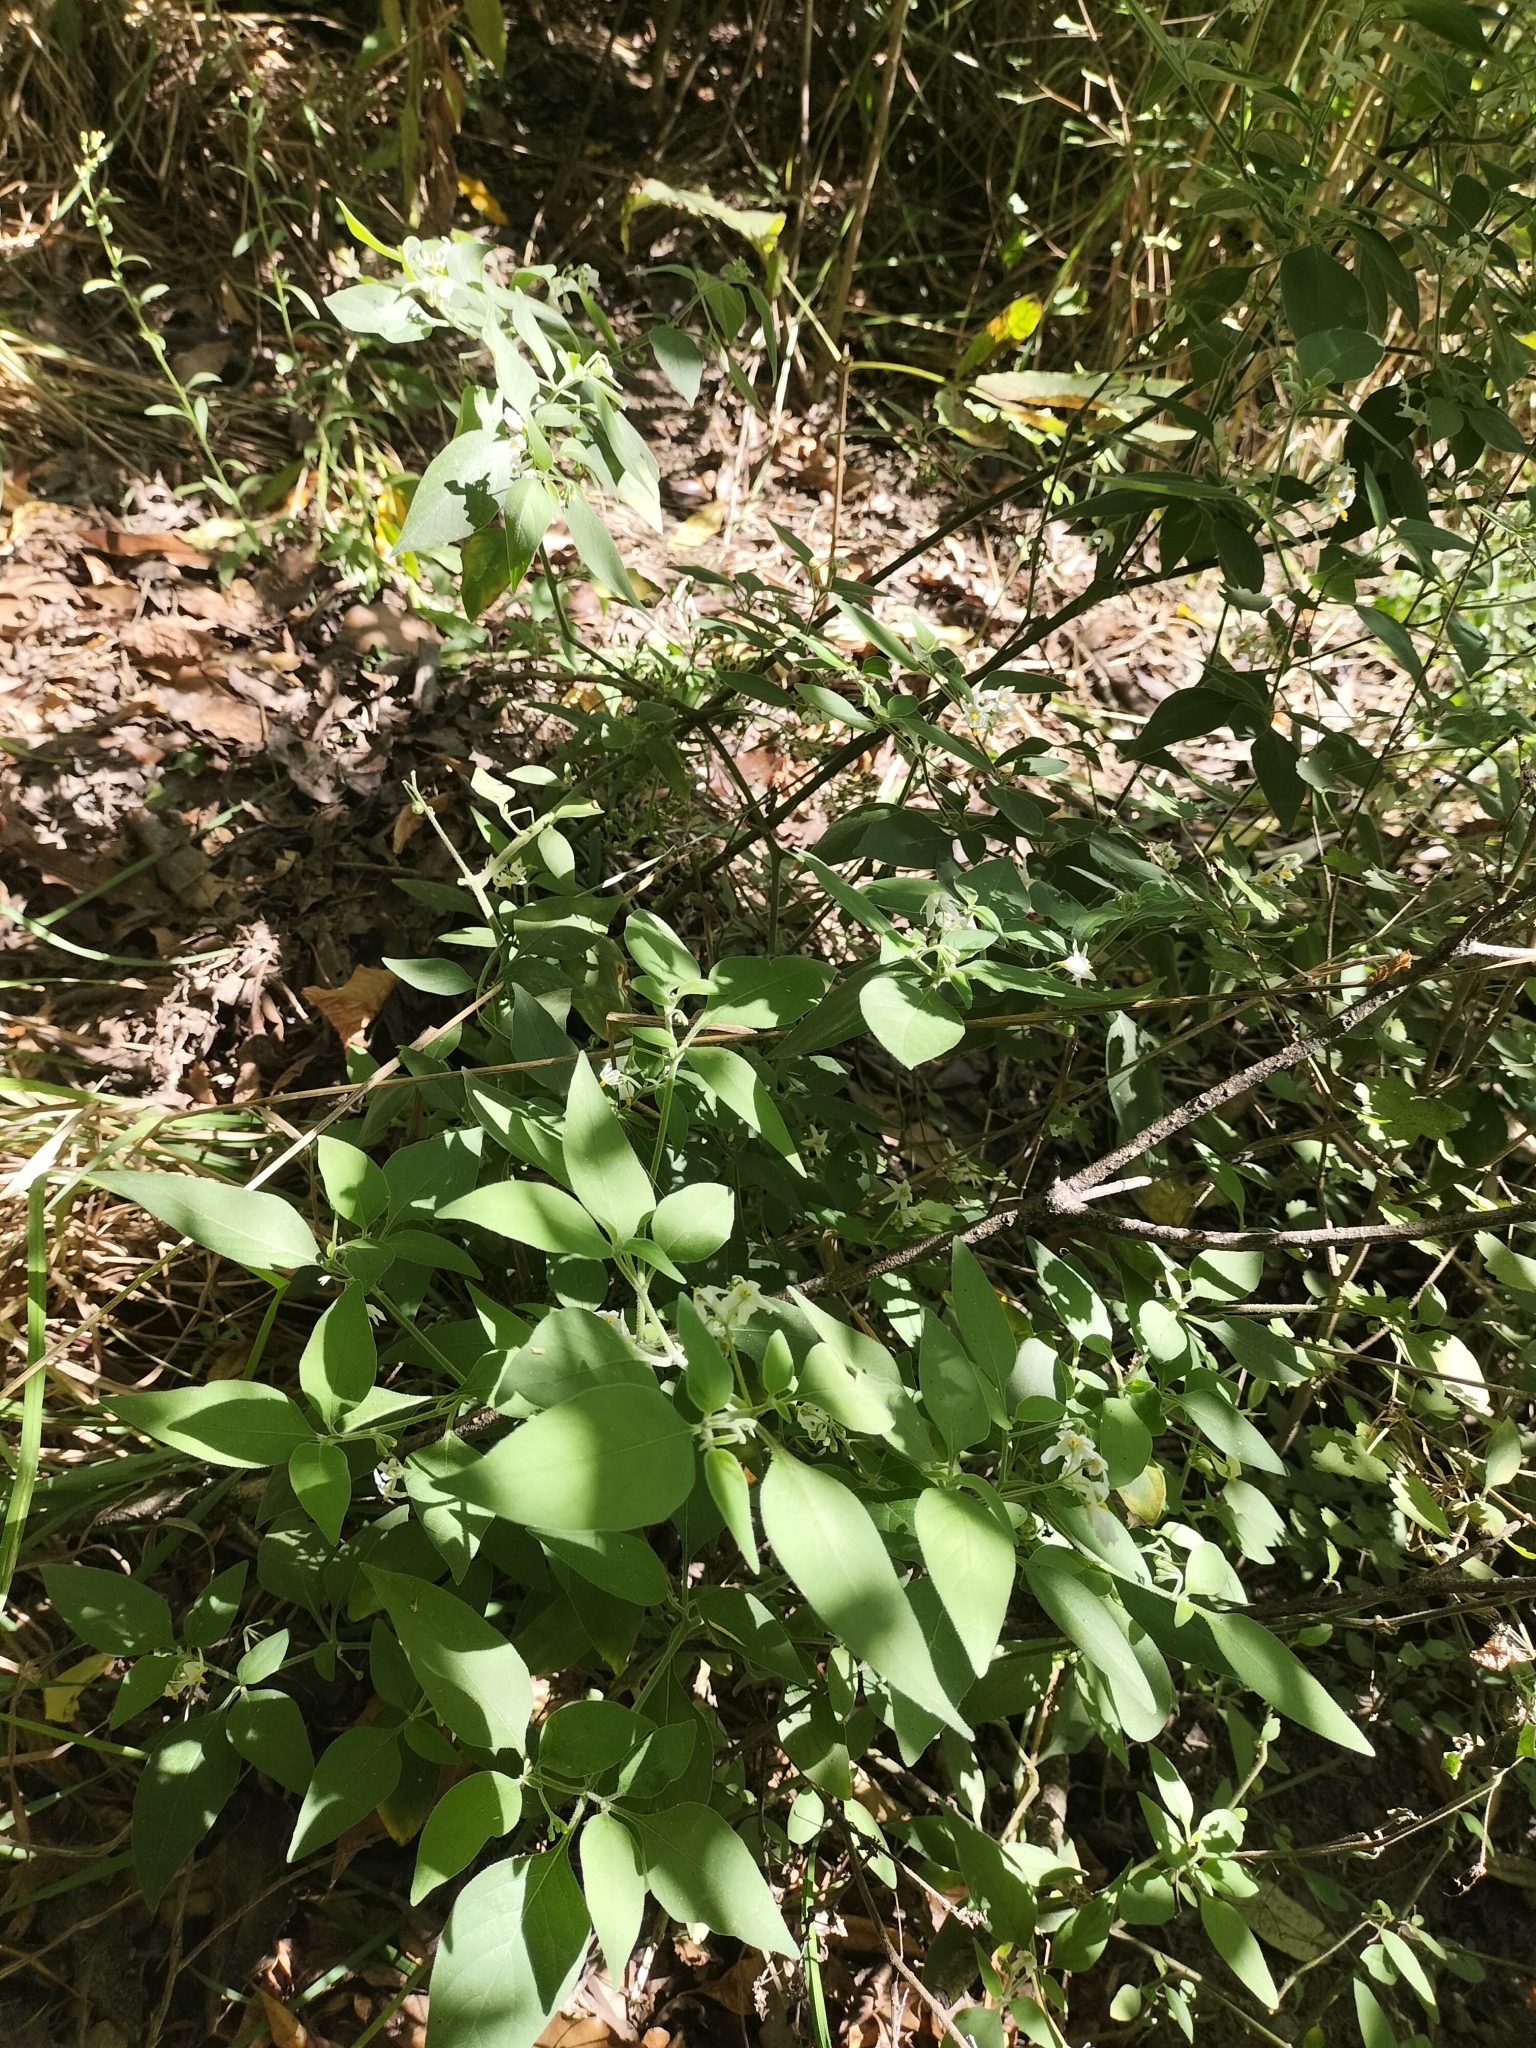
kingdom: Plantae
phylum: Tracheophyta
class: Magnoliopsida
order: Solanales
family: Solanaceae
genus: Solanum
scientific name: Solanum chenopodioides
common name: Tall nightshade
